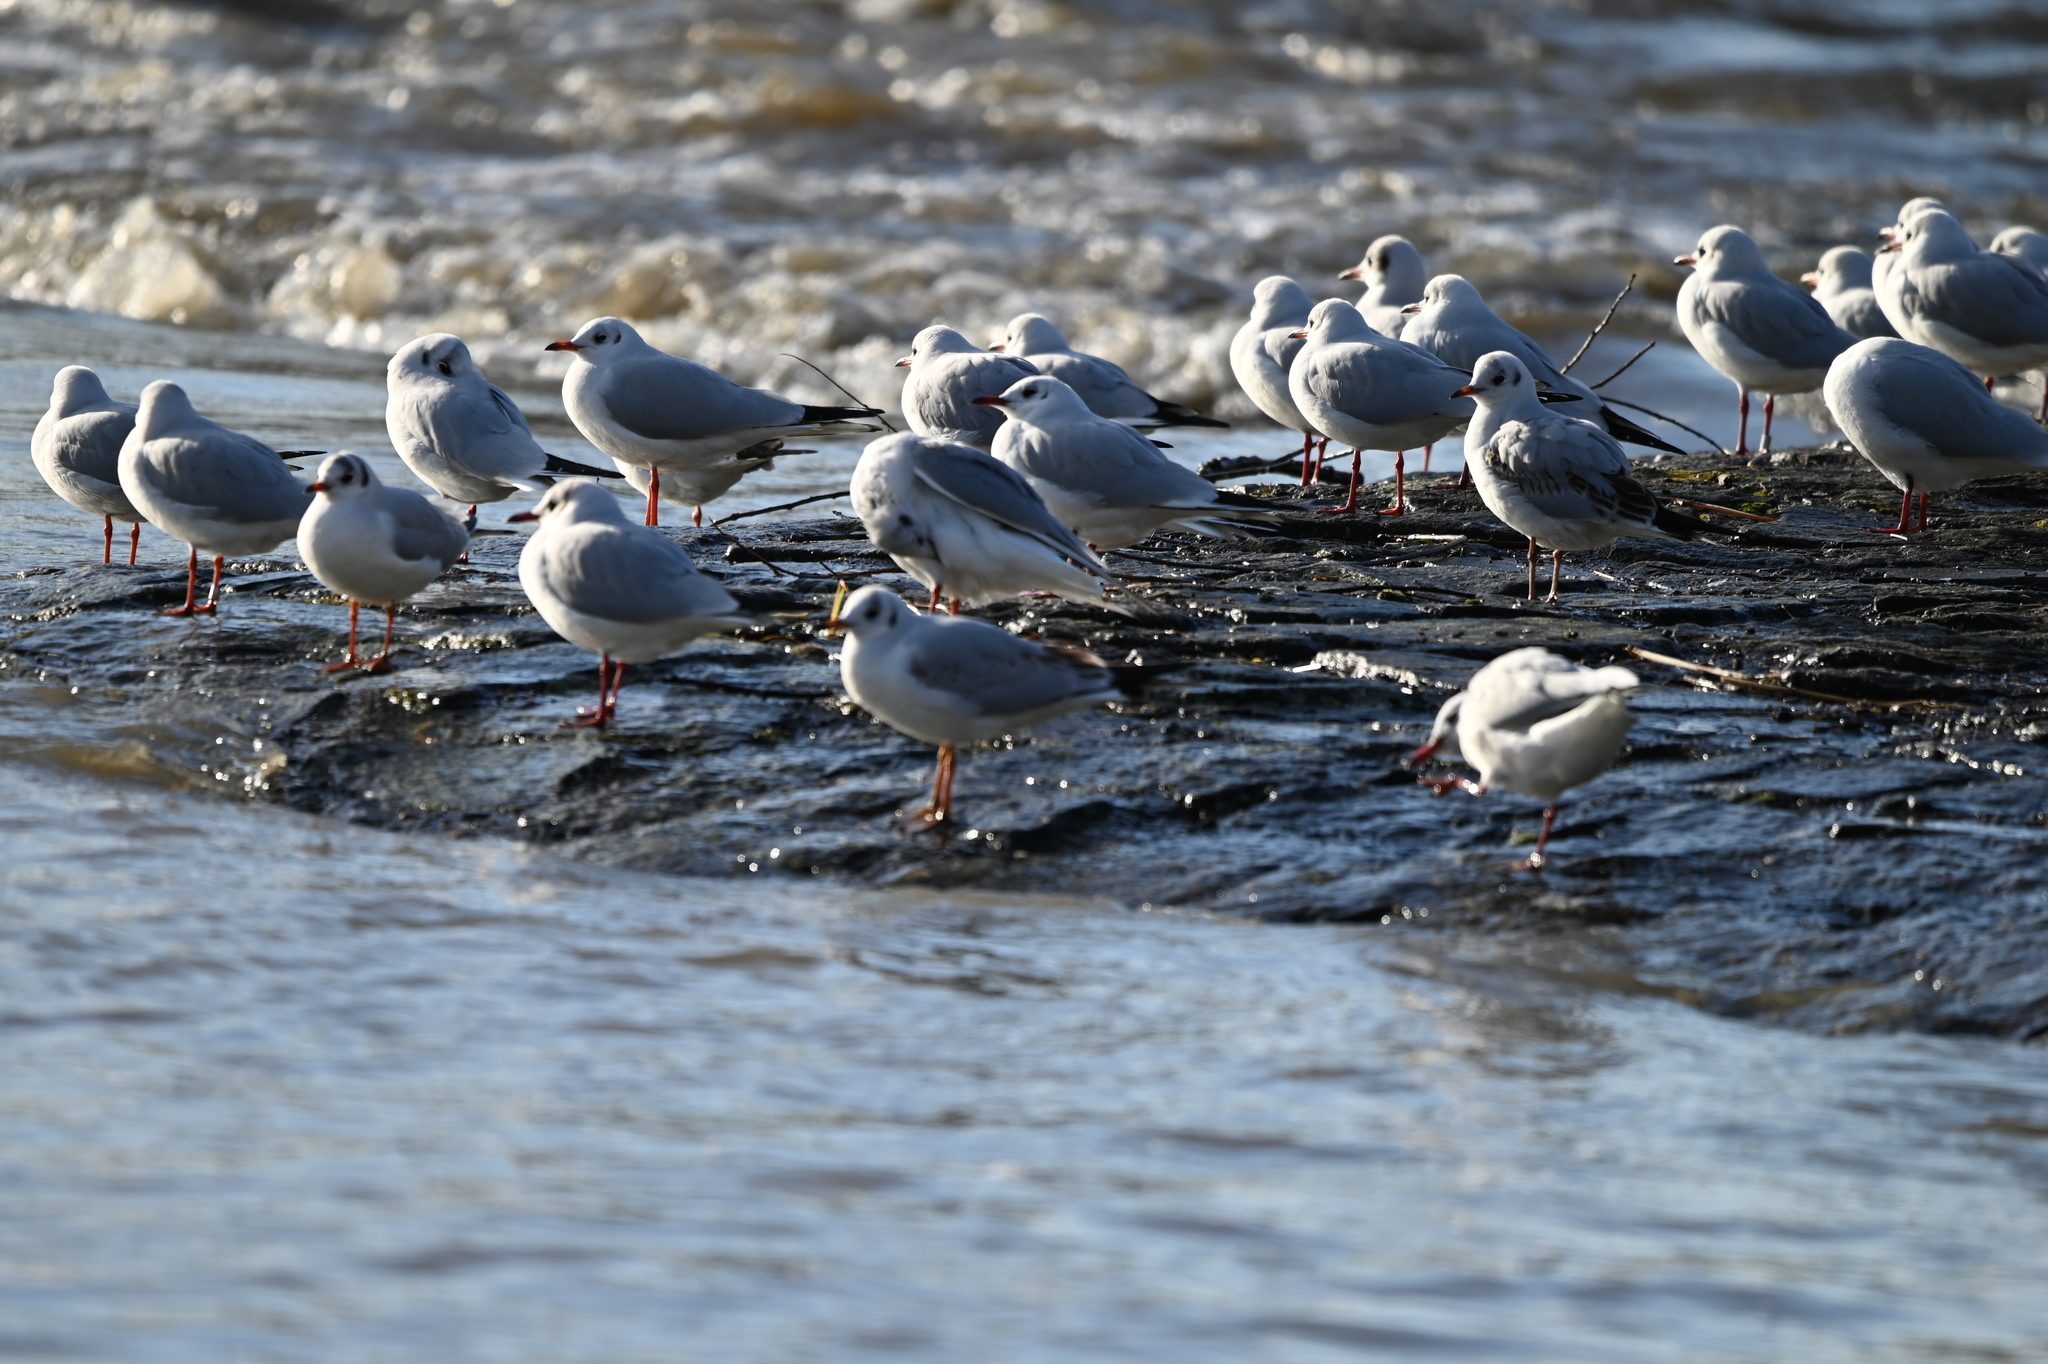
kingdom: Animalia
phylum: Chordata
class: Aves
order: Charadriiformes
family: Laridae
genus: Chroicocephalus
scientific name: Chroicocephalus ridibundus
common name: Black-headed gull
